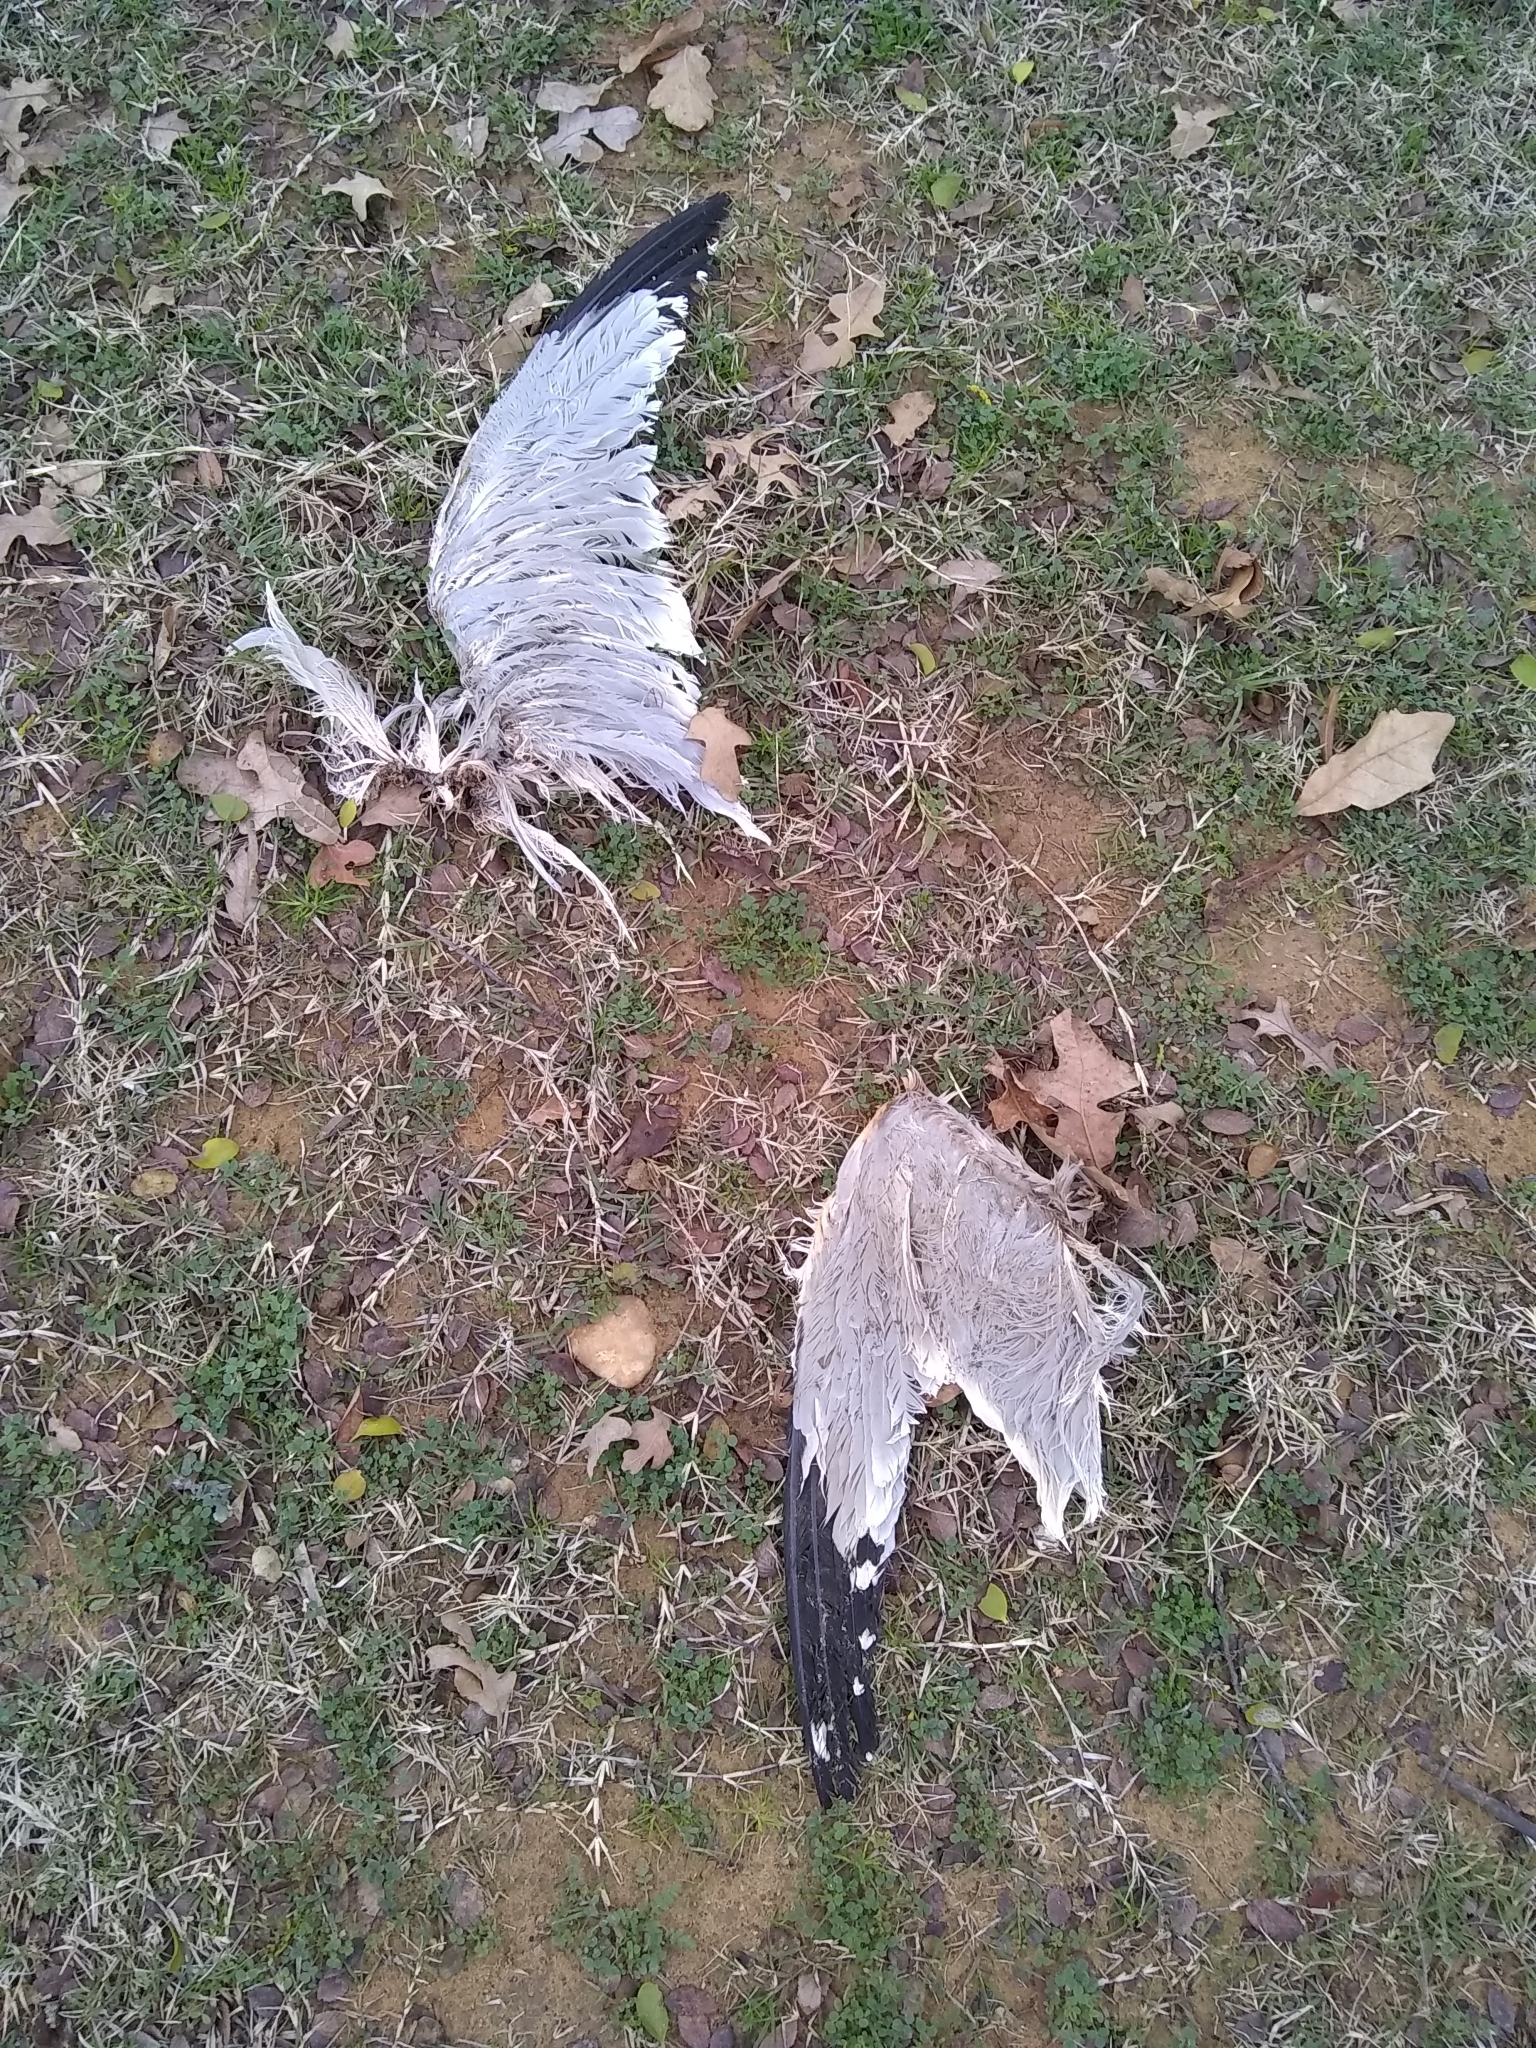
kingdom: Animalia
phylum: Chordata
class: Aves
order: Charadriiformes
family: Laridae
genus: Larus
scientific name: Larus delawarensis
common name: Ring-billed gull
